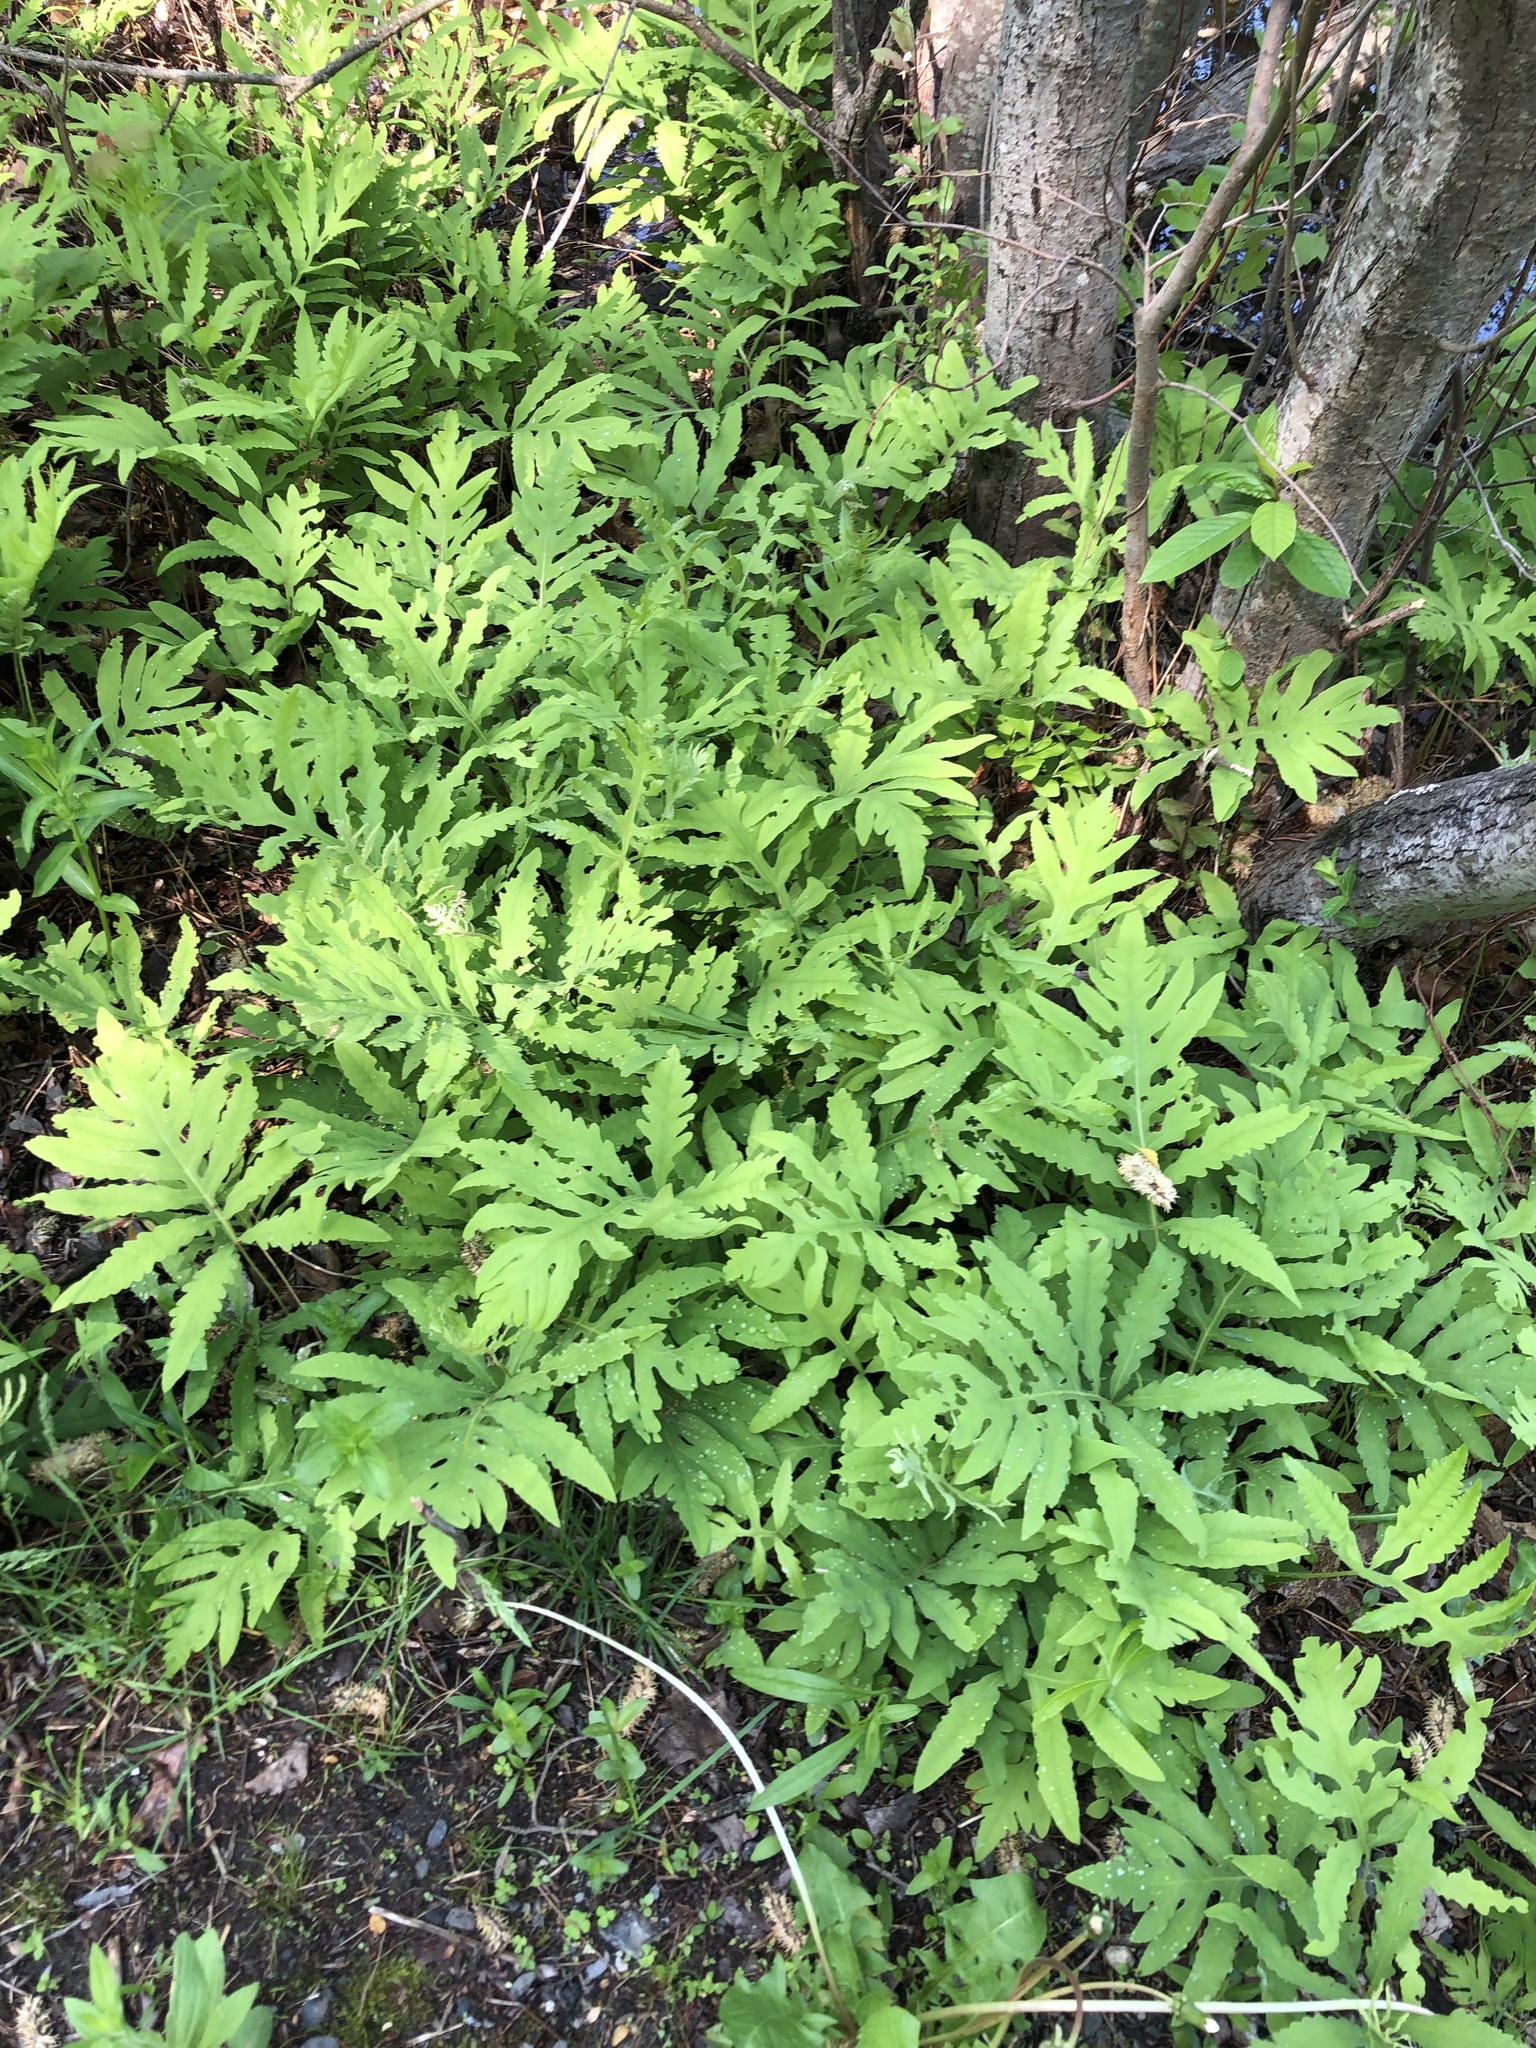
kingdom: Plantae
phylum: Tracheophyta
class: Polypodiopsida
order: Polypodiales
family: Onocleaceae
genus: Onoclea
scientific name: Onoclea sensibilis
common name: Sensitive fern
